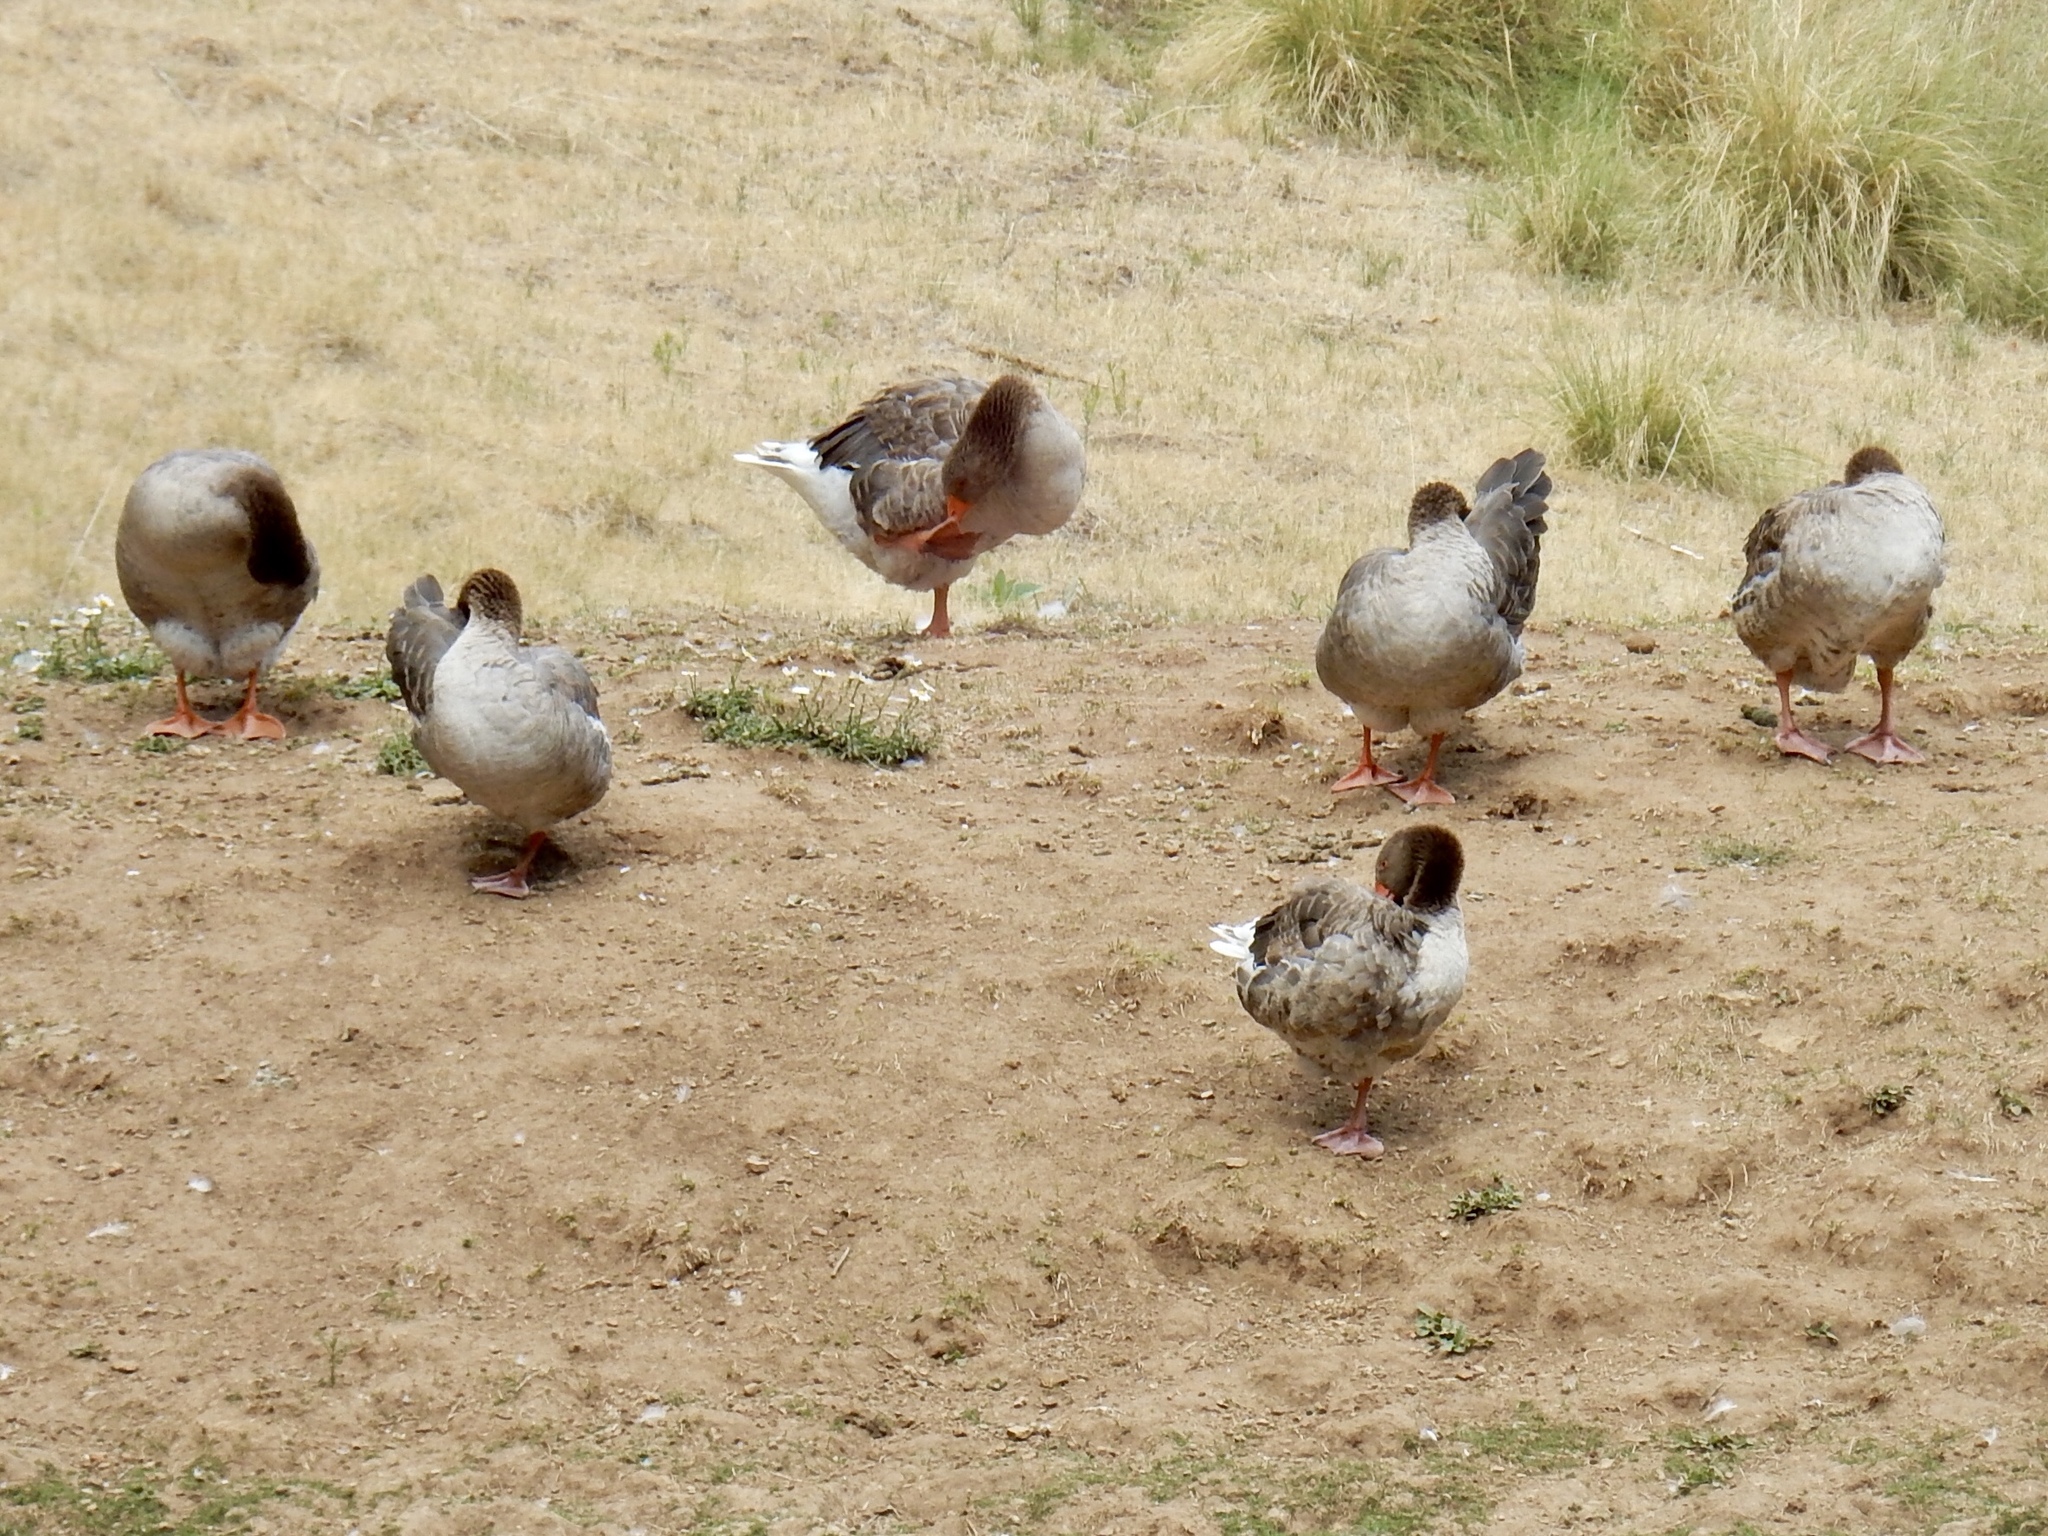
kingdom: Animalia
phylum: Chordata
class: Aves
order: Anseriformes
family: Anatidae
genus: Anser
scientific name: Anser anser
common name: Greylag goose
